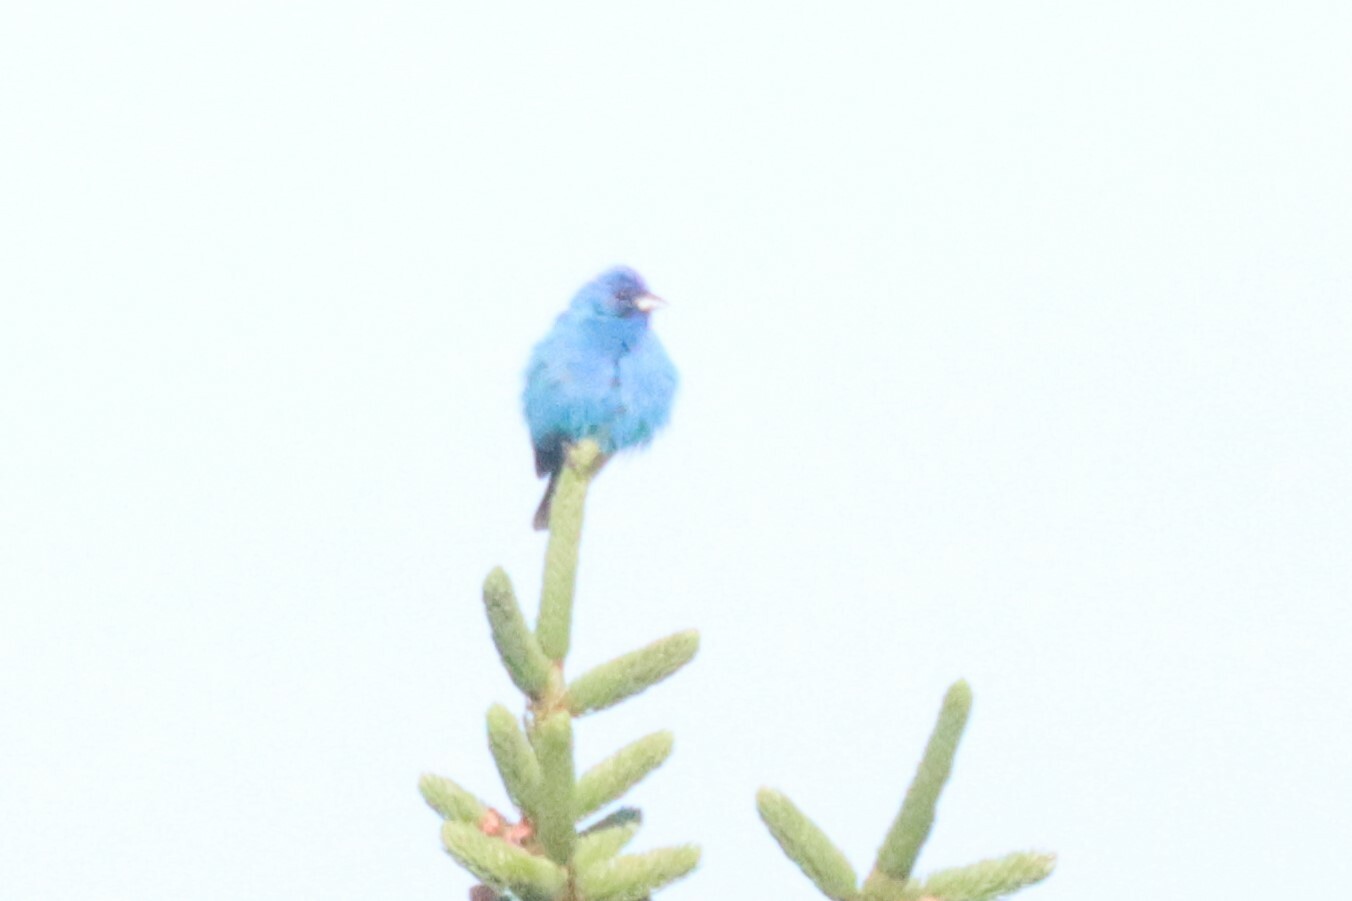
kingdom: Animalia
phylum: Chordata
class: Aves
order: Passeriformes
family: Cardinalidae
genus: Passerina
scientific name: Passerina cyanea
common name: Indigo bunting
